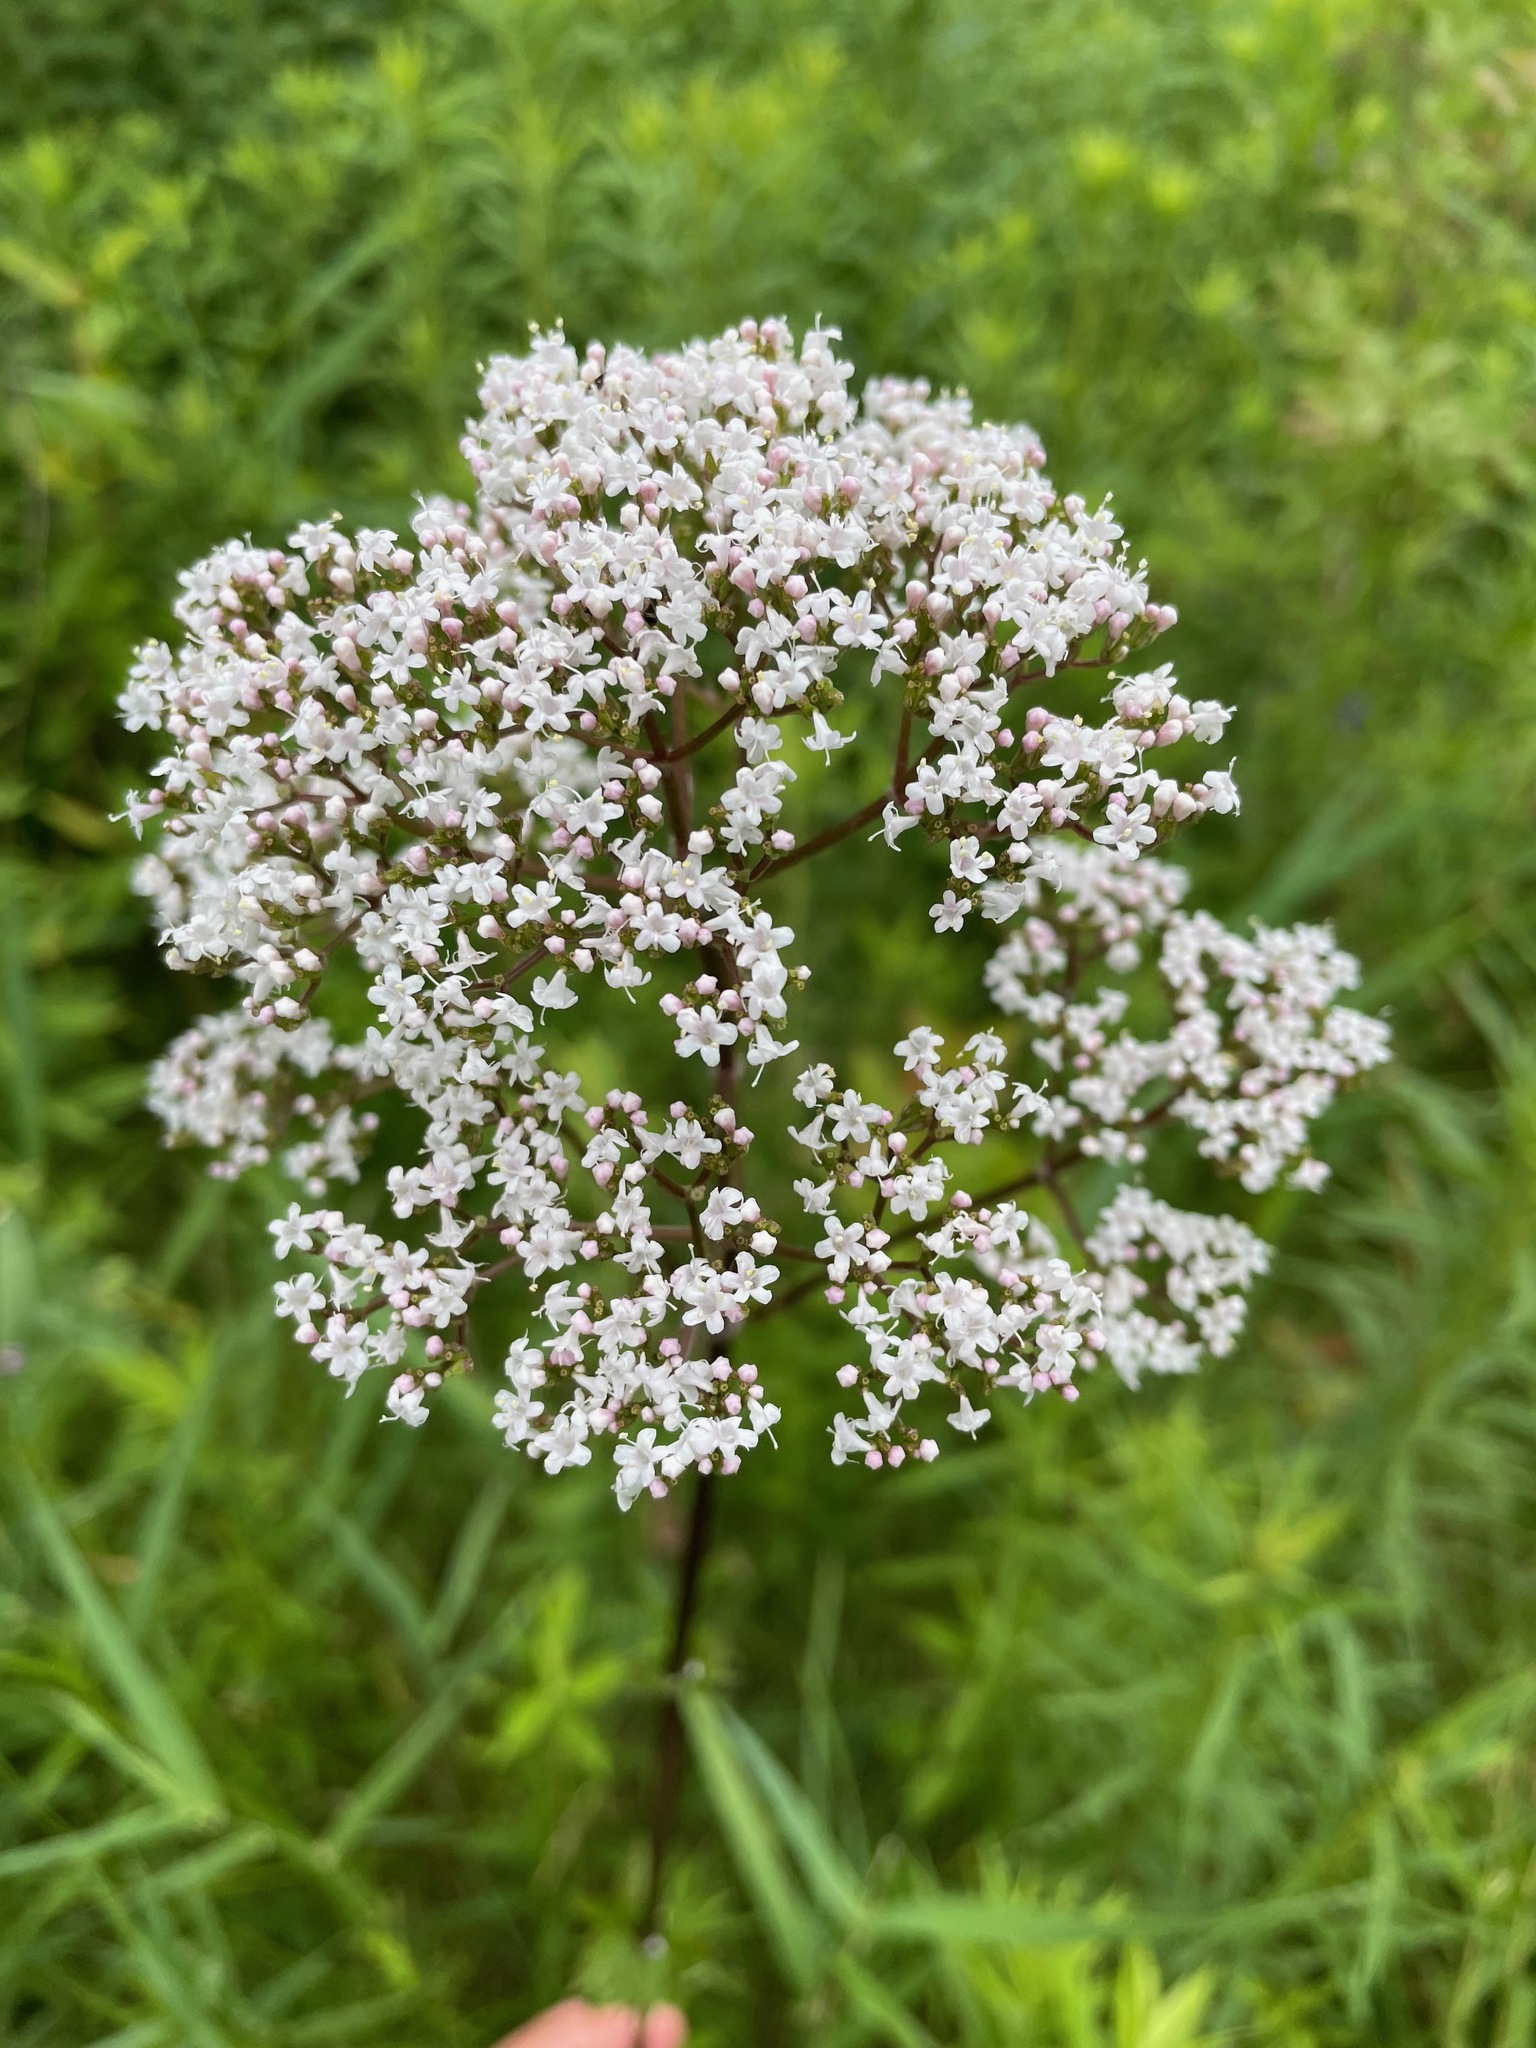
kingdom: Plantae
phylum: Tracheophyta
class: Magnoliopsida
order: Dipsacales
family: Caprifoliaceae
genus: Valeriana
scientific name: Valeriana officinalis
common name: Common valerian
